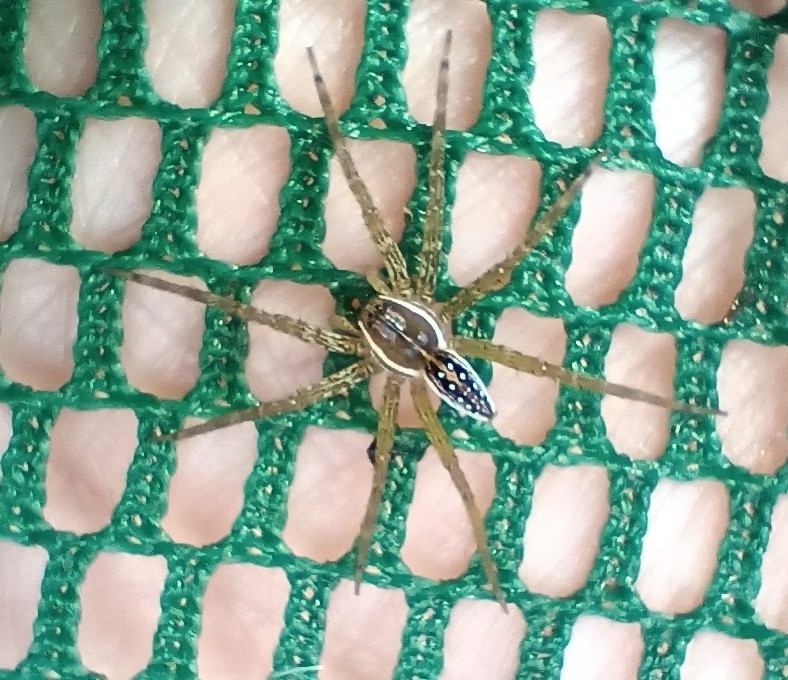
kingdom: Animalia
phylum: Arthropoda
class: Arachnida
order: Araneae
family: Pisauridae
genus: Dolomedes
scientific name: Dolomedes triton
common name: Six-spotted fishing spider
